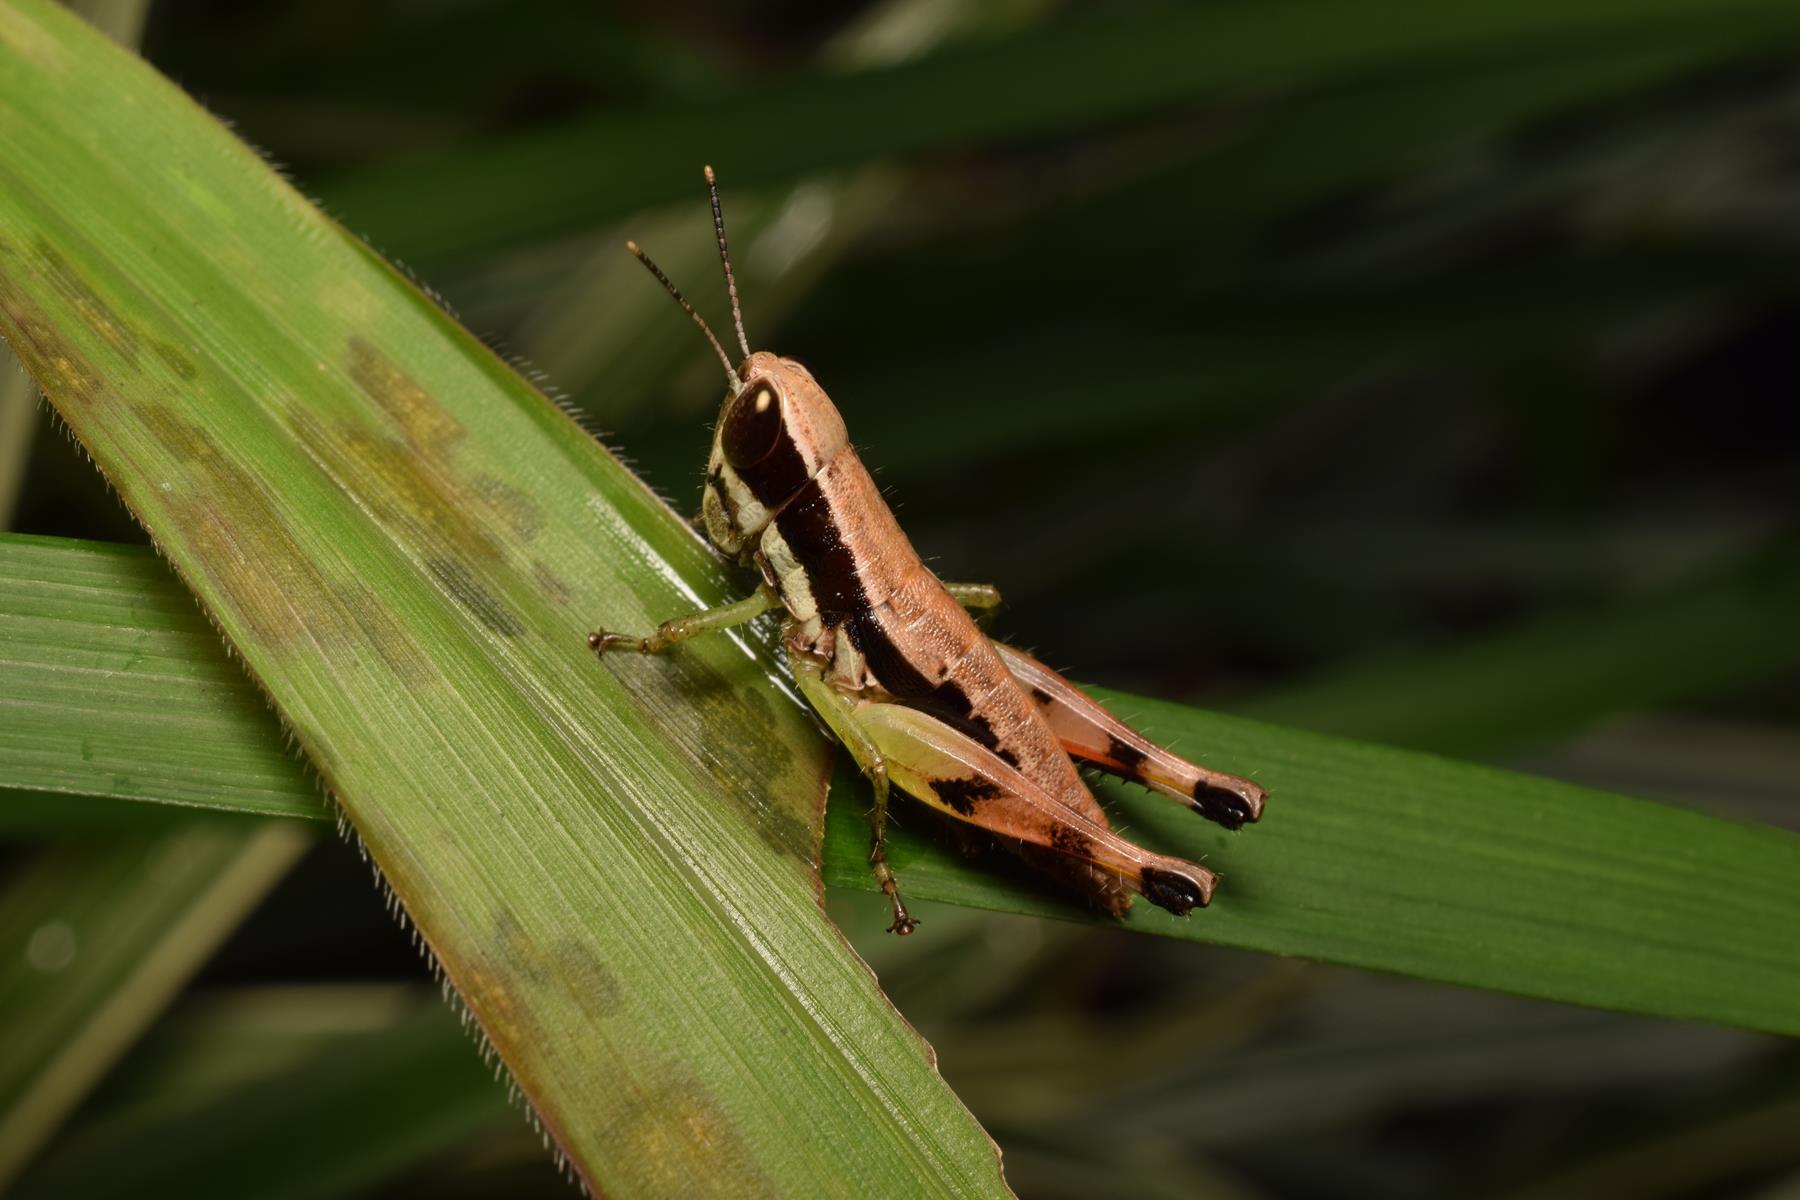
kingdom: Animalia
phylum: Arthropoda
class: Insecta
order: Orthoptera
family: Acrididae
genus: Chitaura
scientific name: Chitaura indica
